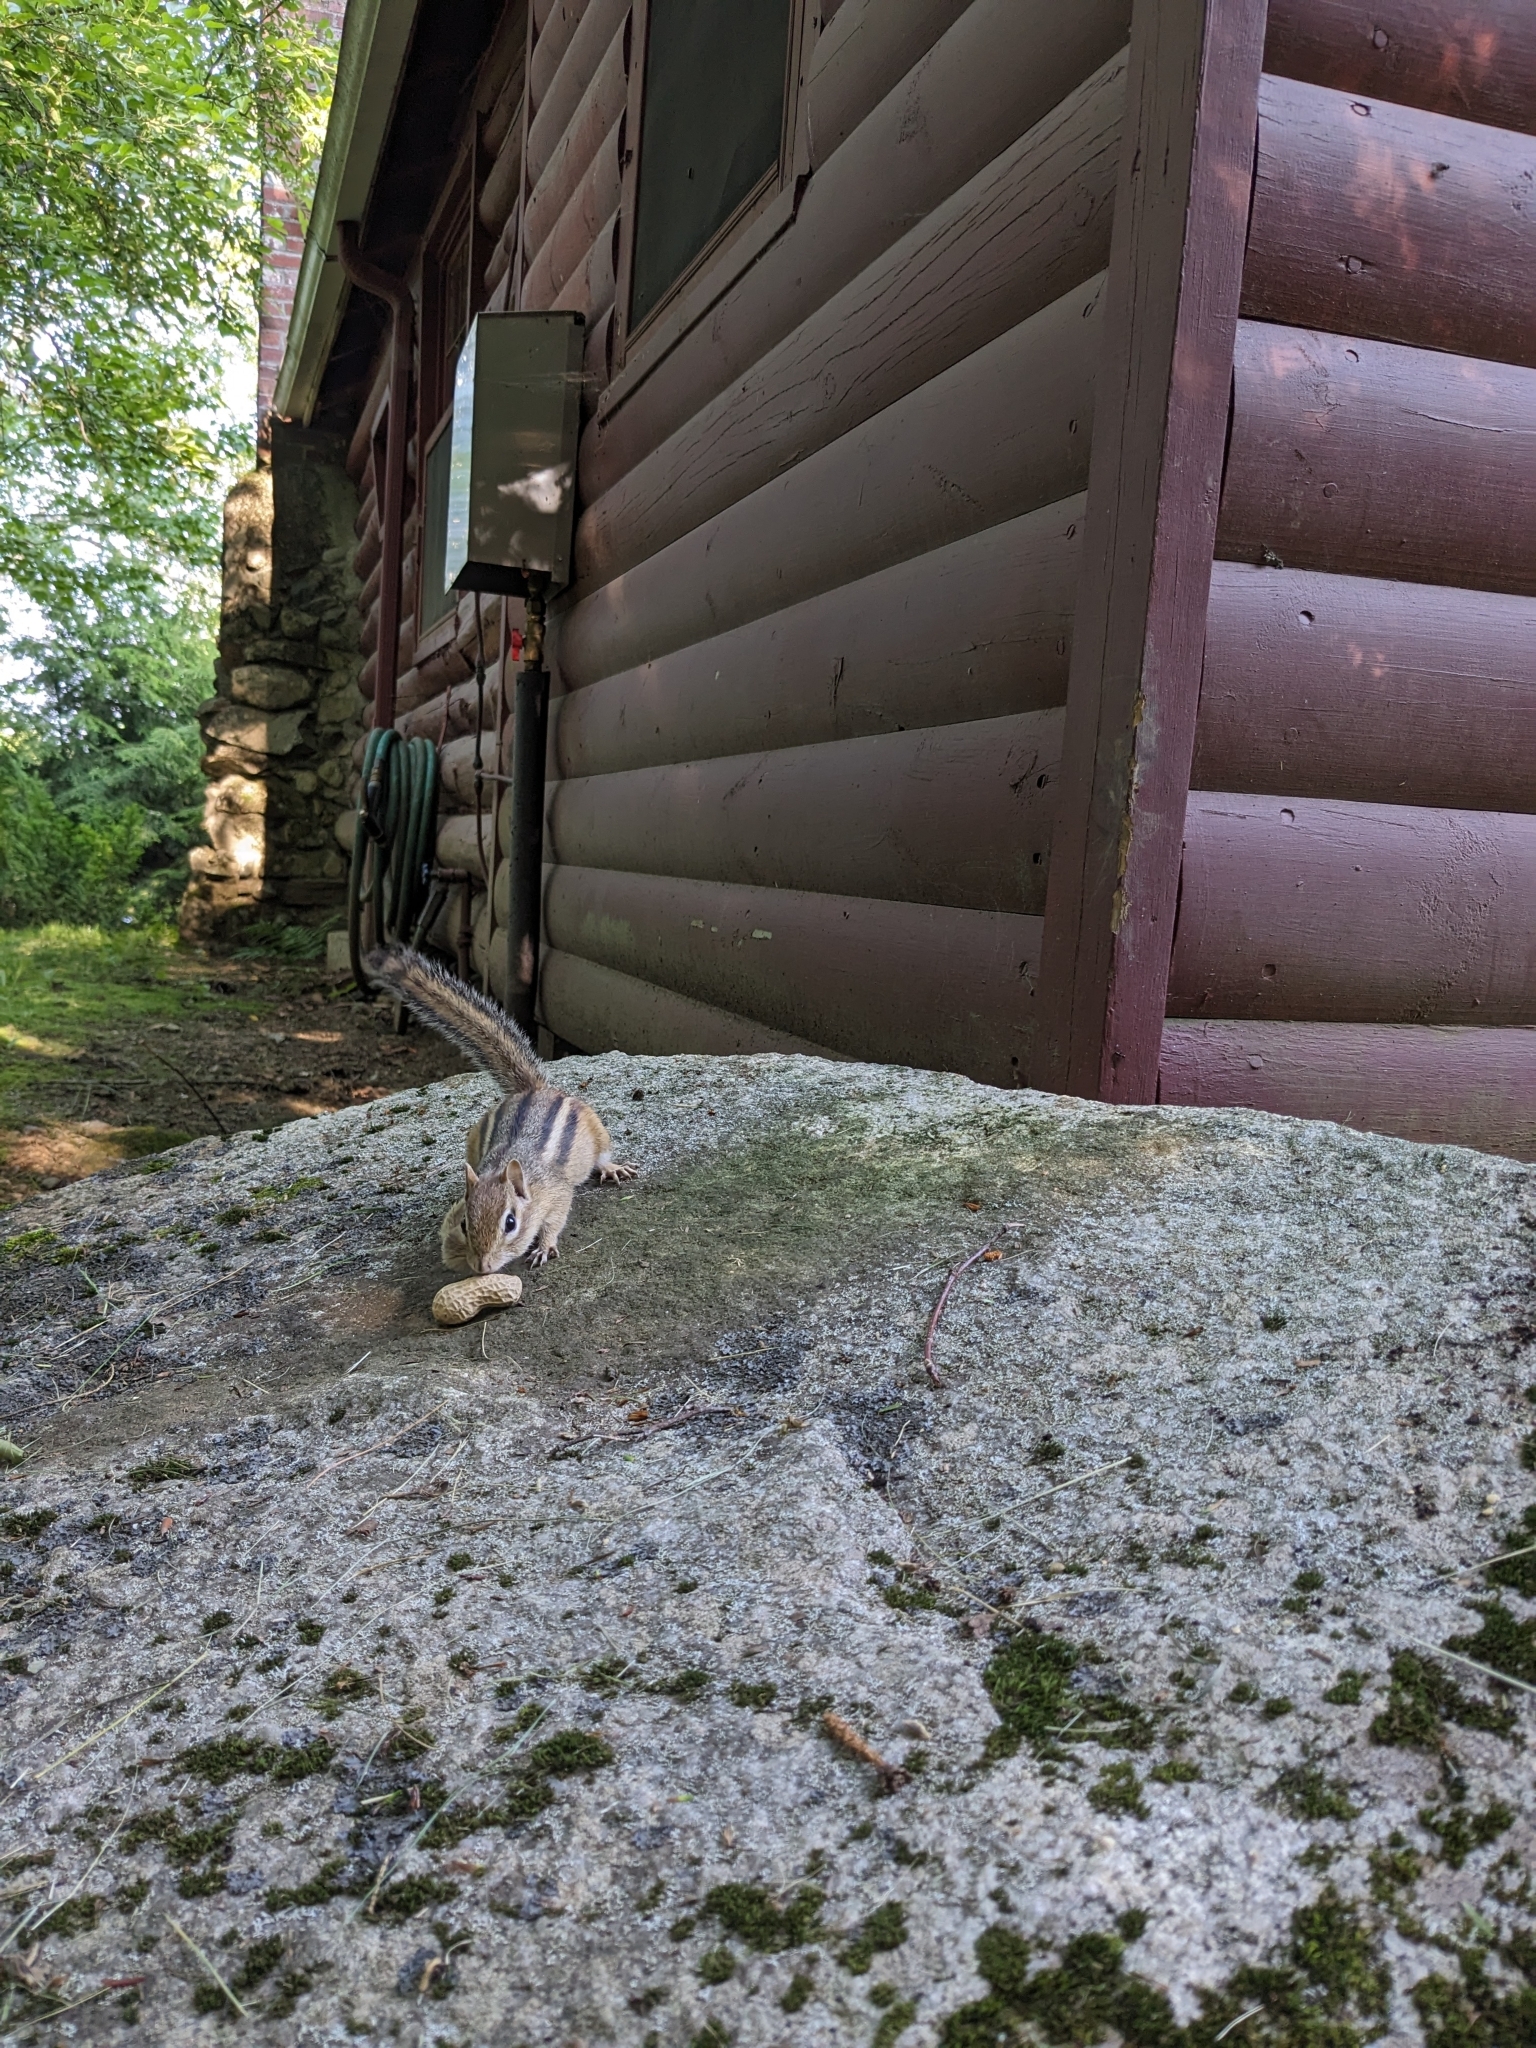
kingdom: Animalia
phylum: Chordata
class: Mammalia
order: Rodentia
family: Sciuridae
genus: Tamias
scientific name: Tamias striatus
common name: Eastern chipmunk
